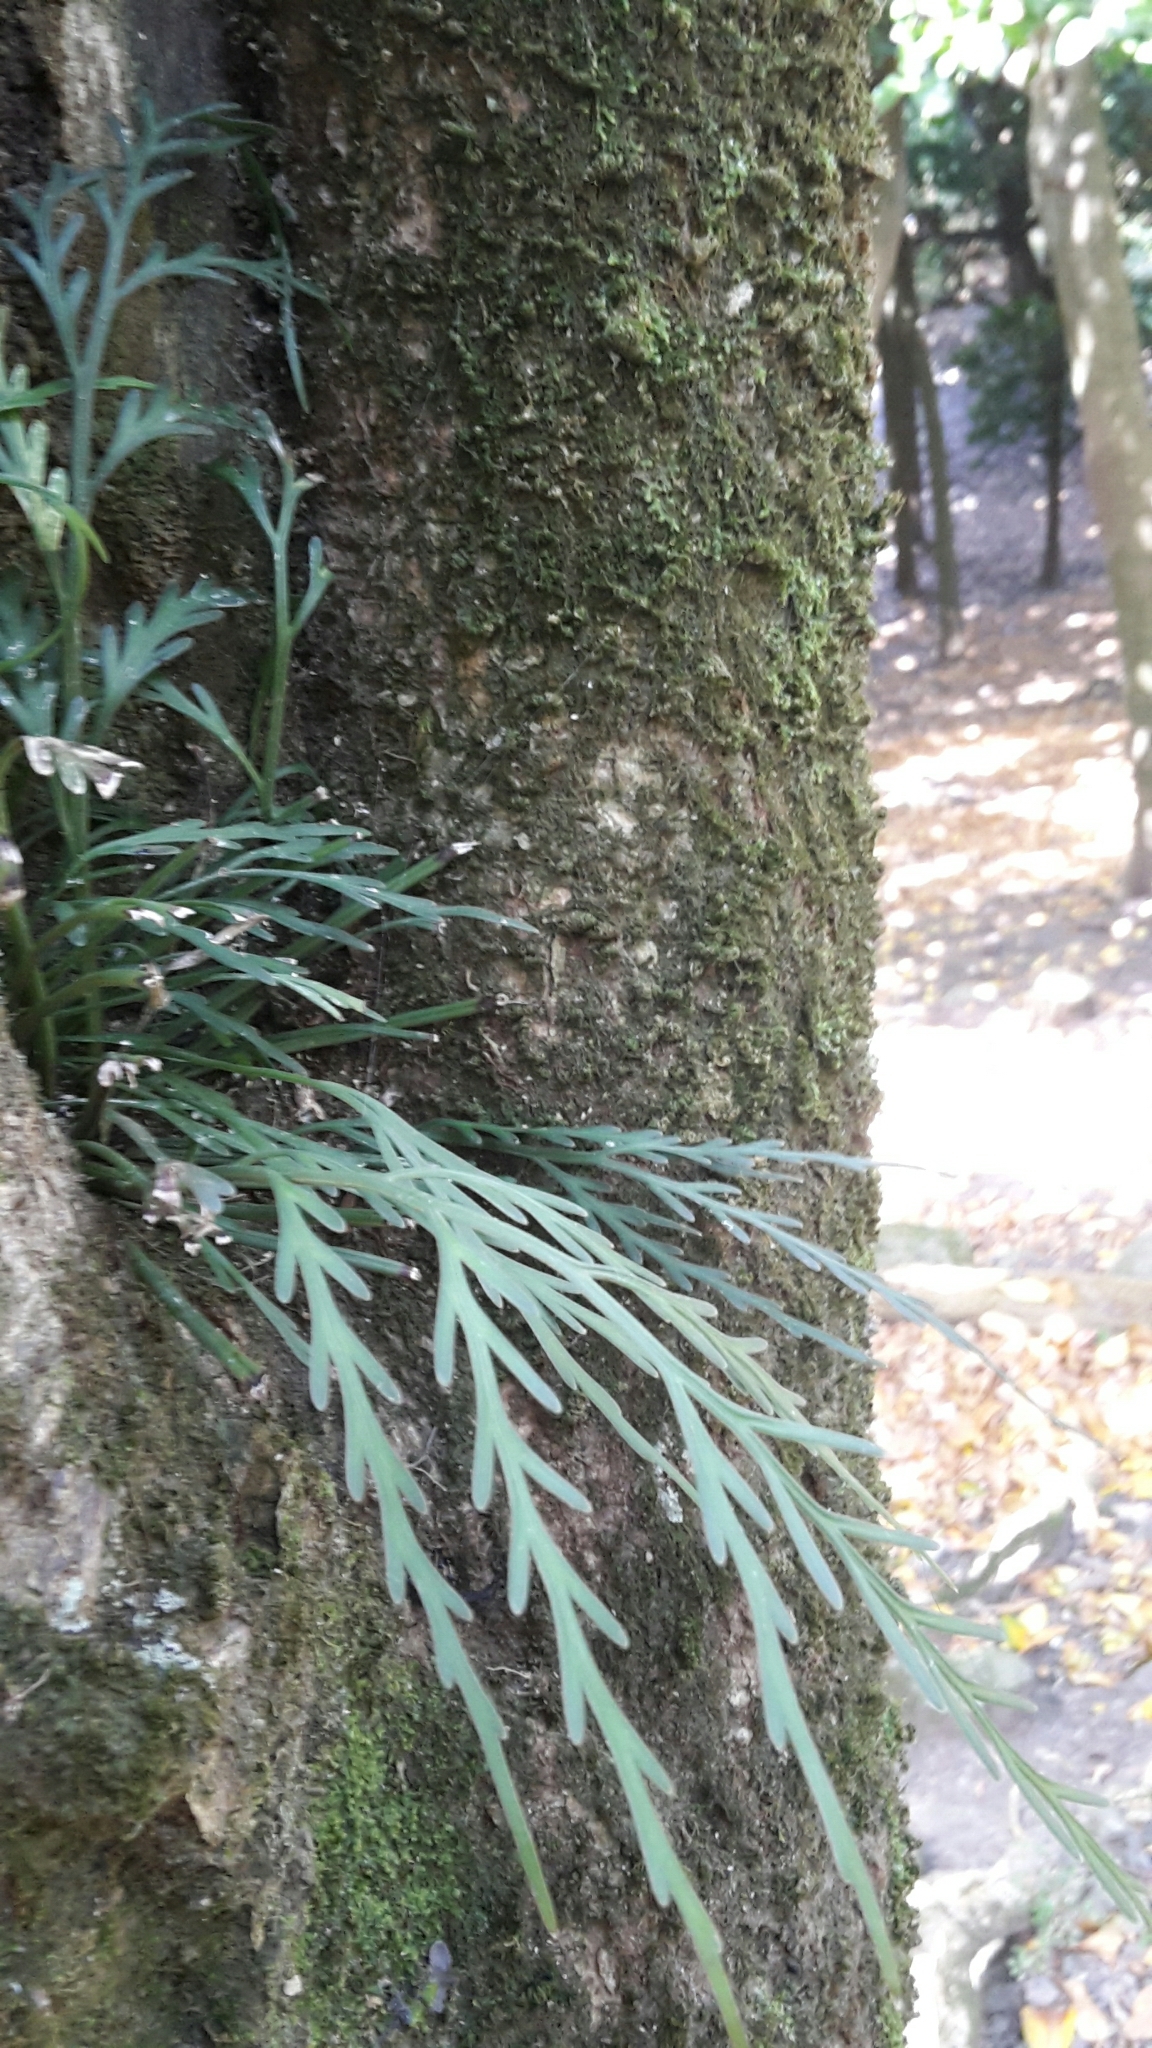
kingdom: Plantae
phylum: Tracheophyta
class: Polypodiopsida
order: Polypodiales
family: Aspleniaceae
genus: Asplenium
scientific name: Asplenium flaccidum
